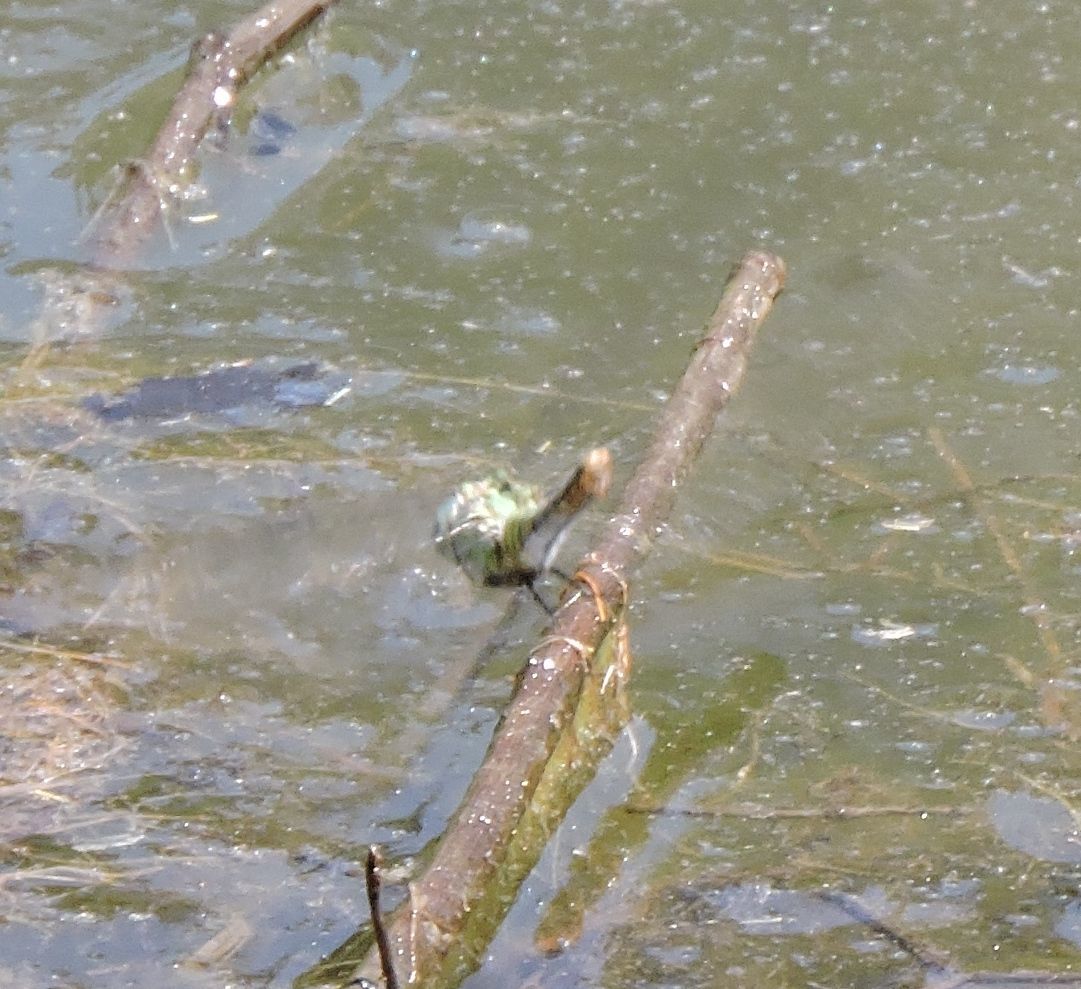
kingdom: Animalia
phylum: Arthropoda
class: Insecta
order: Odonata
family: Libellulidae
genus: Erythemis
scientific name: Erythemis collocata
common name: Western pondhawk
